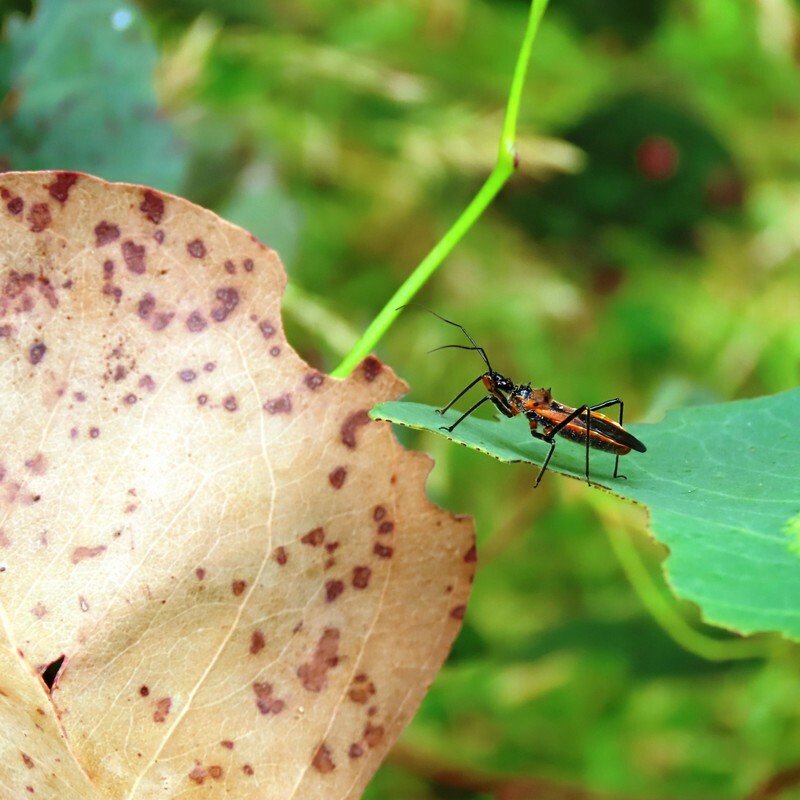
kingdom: Animalia
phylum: Arthropoda
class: Insecta
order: Hemiptera
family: Reduviidae
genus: Gminatus
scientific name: Gminatus australis
